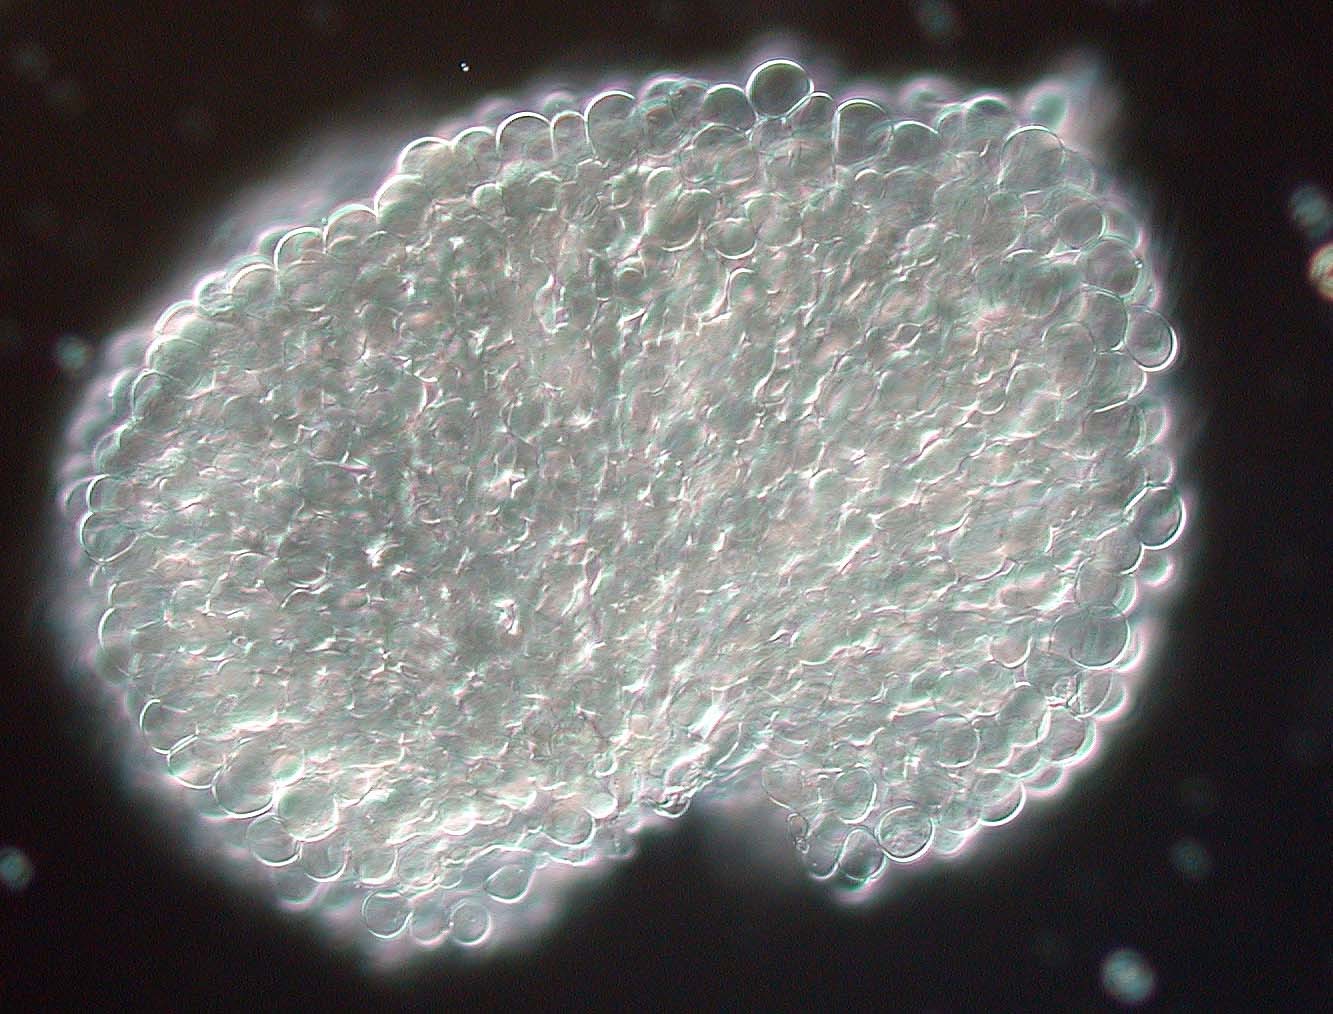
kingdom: Fungi
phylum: Basidiomycota
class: Agaricomycetes
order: Polyporales
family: Meruliaceae
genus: Bulbillomyces
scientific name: Bulbillomyces farinosus
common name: Couscous crust
